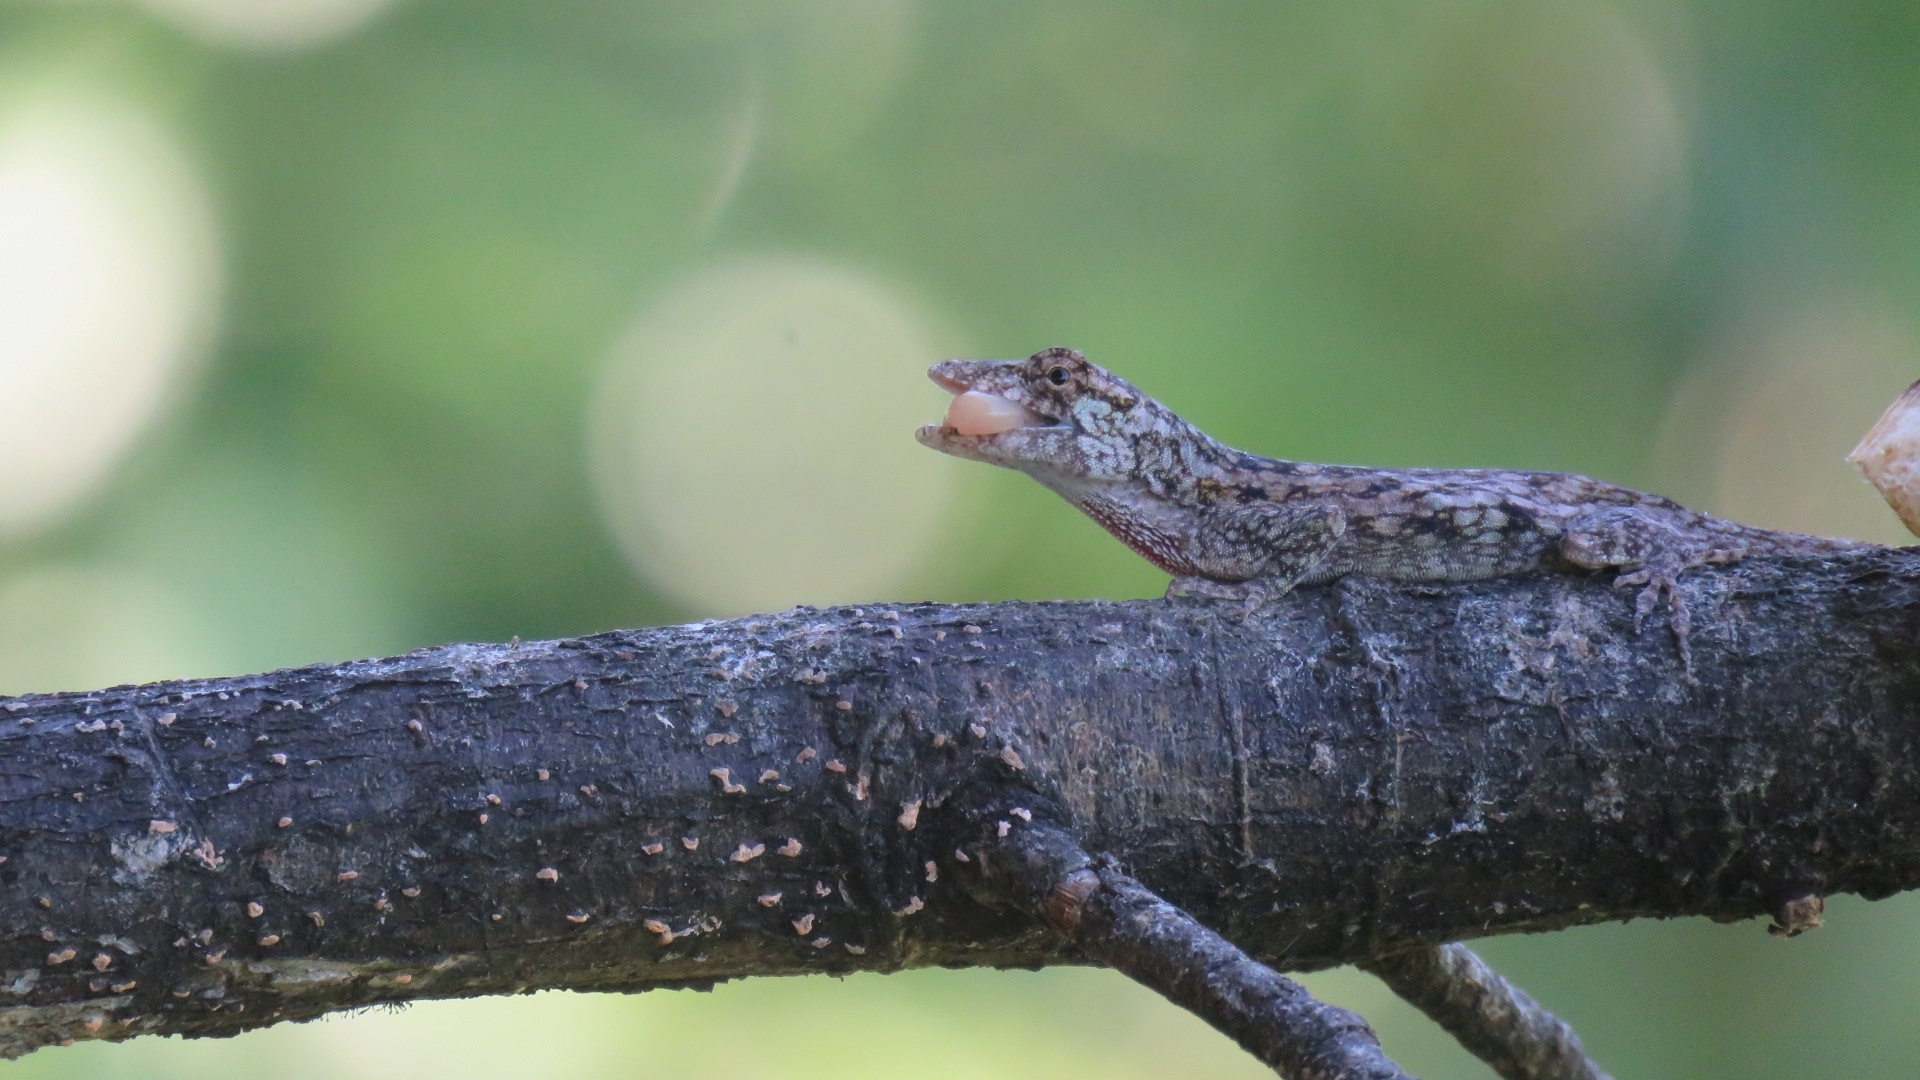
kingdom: Animalia
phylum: Chordata
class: Squamata
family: Dactyloidae
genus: Anolis
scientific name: Anolis pentaprion
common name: Lichen anole
